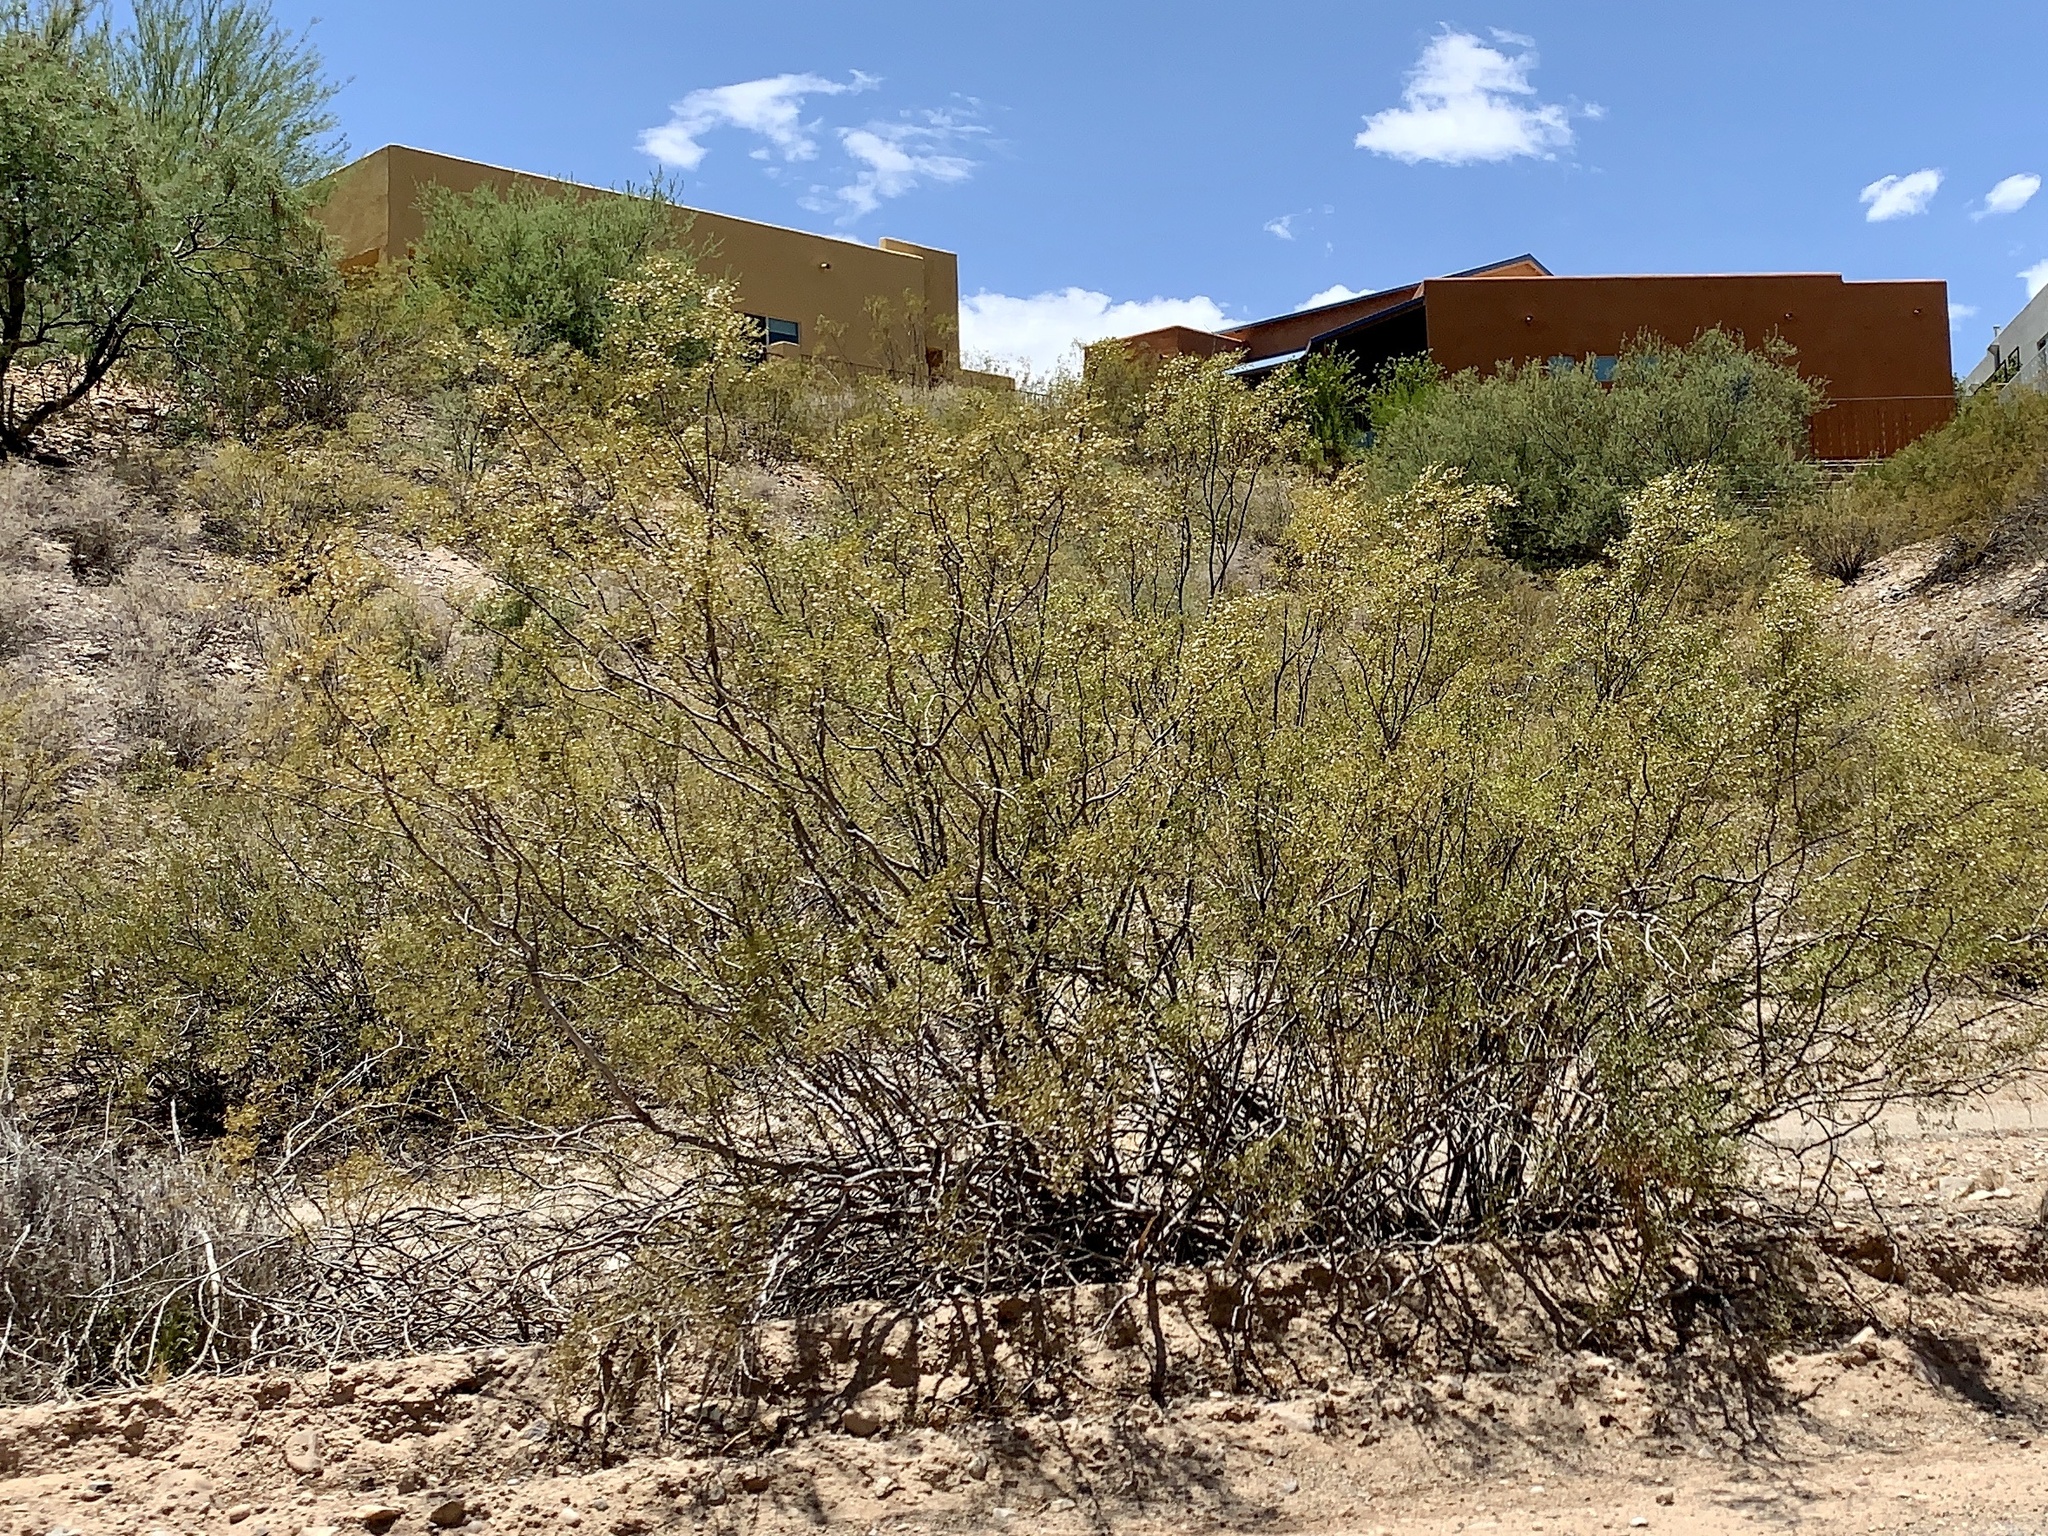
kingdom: Plantae
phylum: Tracheophyta
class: Magnoliopsida
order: Zygophyllales
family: Zygophyllaceae
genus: Larrea
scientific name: Larrea tridentata
